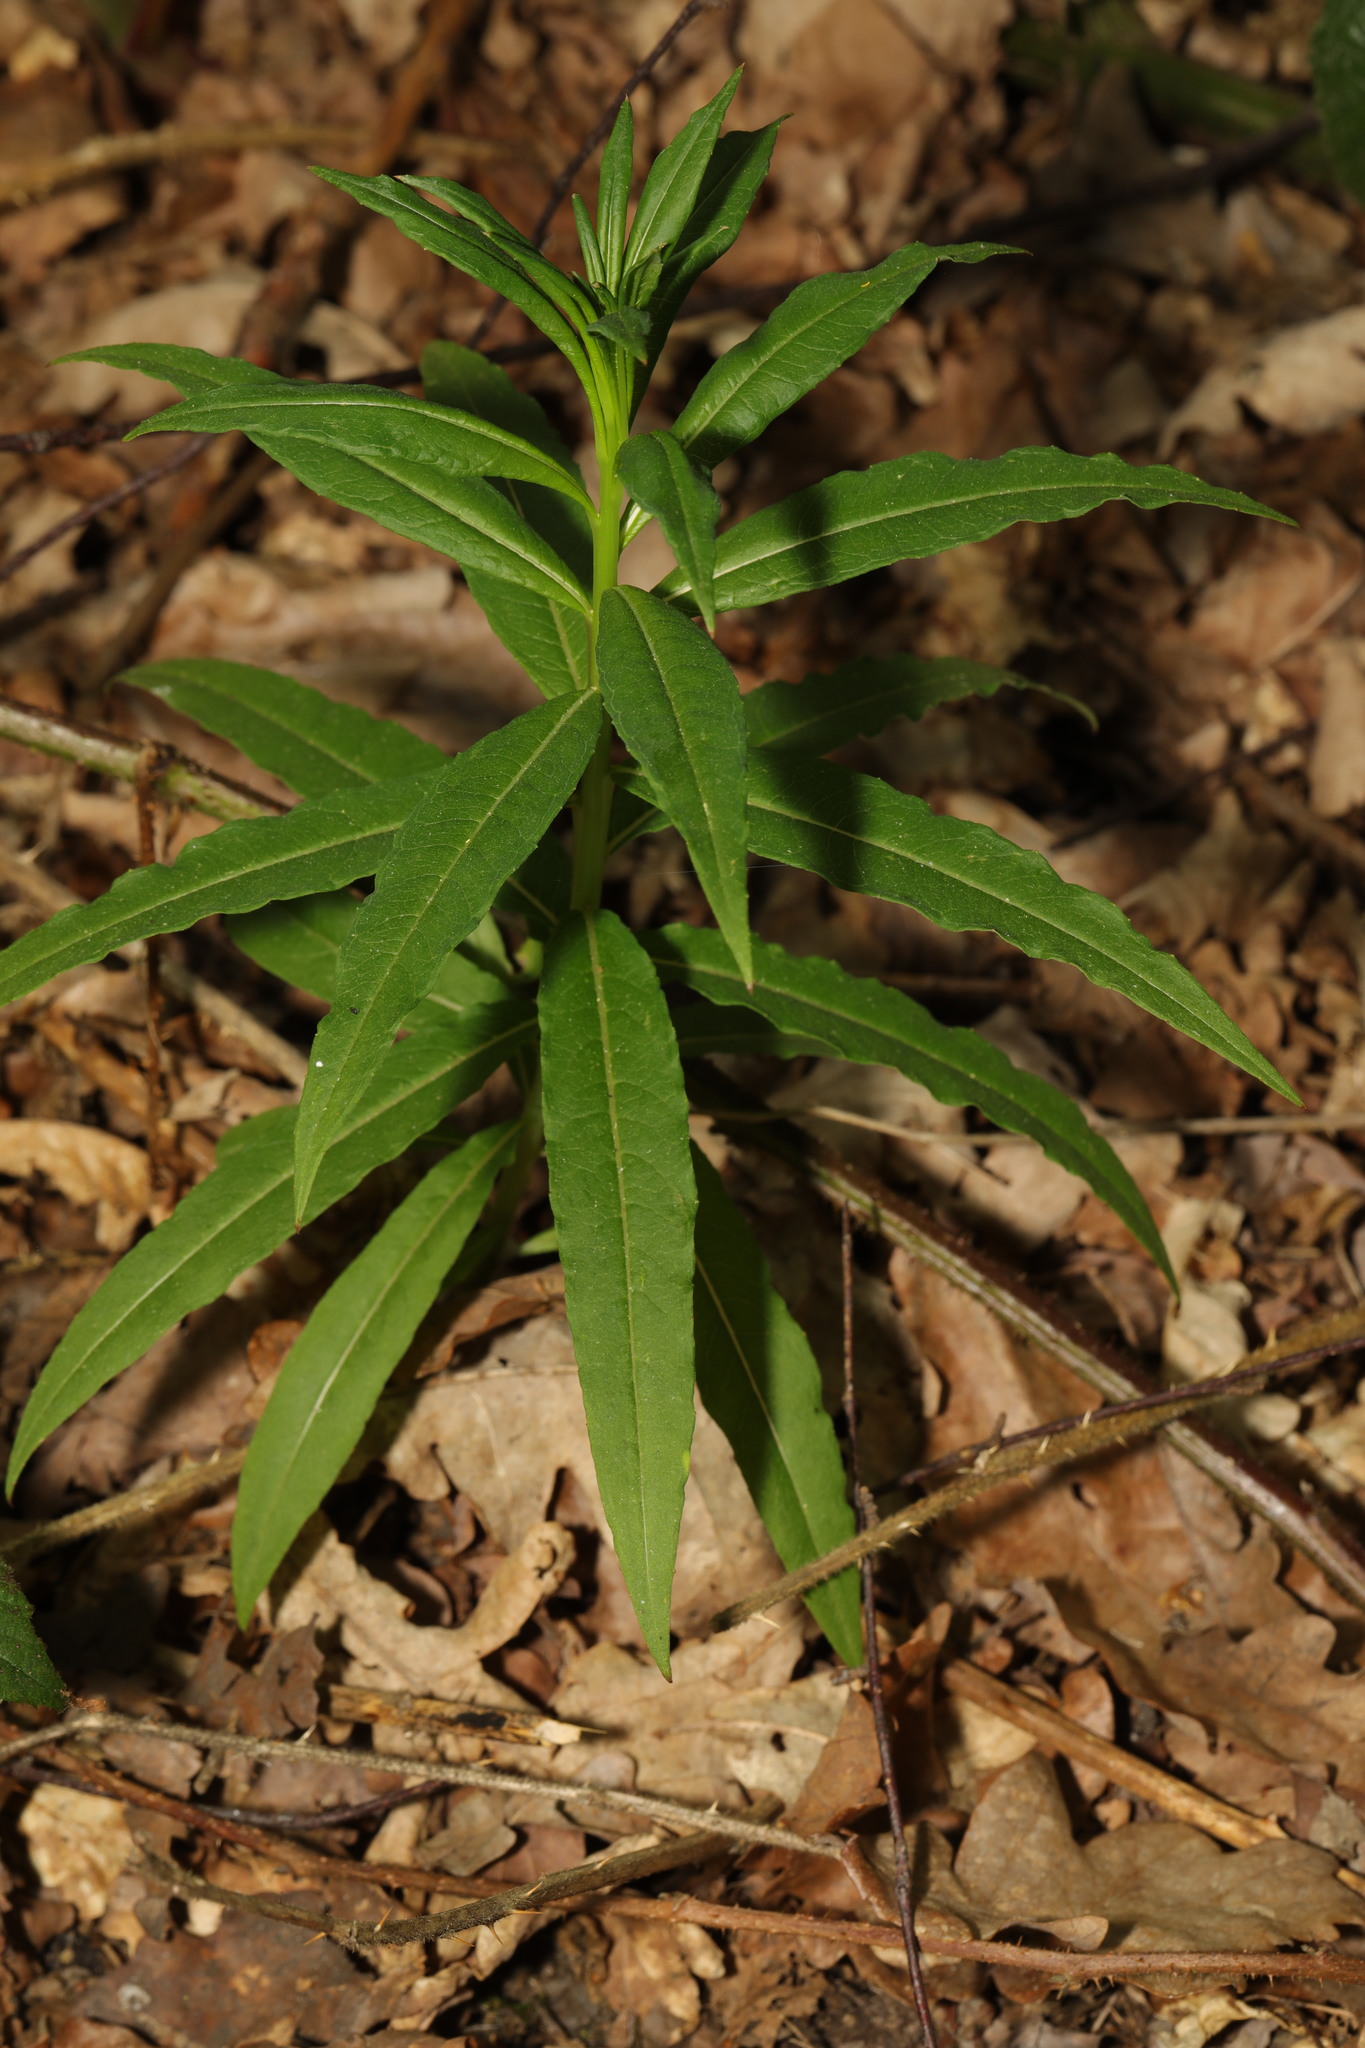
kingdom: Plantae
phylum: Tracheophyta
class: Magnoliopsida
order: Myrtales
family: Onagraceae
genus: Chamaenerion
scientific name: Chamaenerion angustifolium
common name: Fireweed
